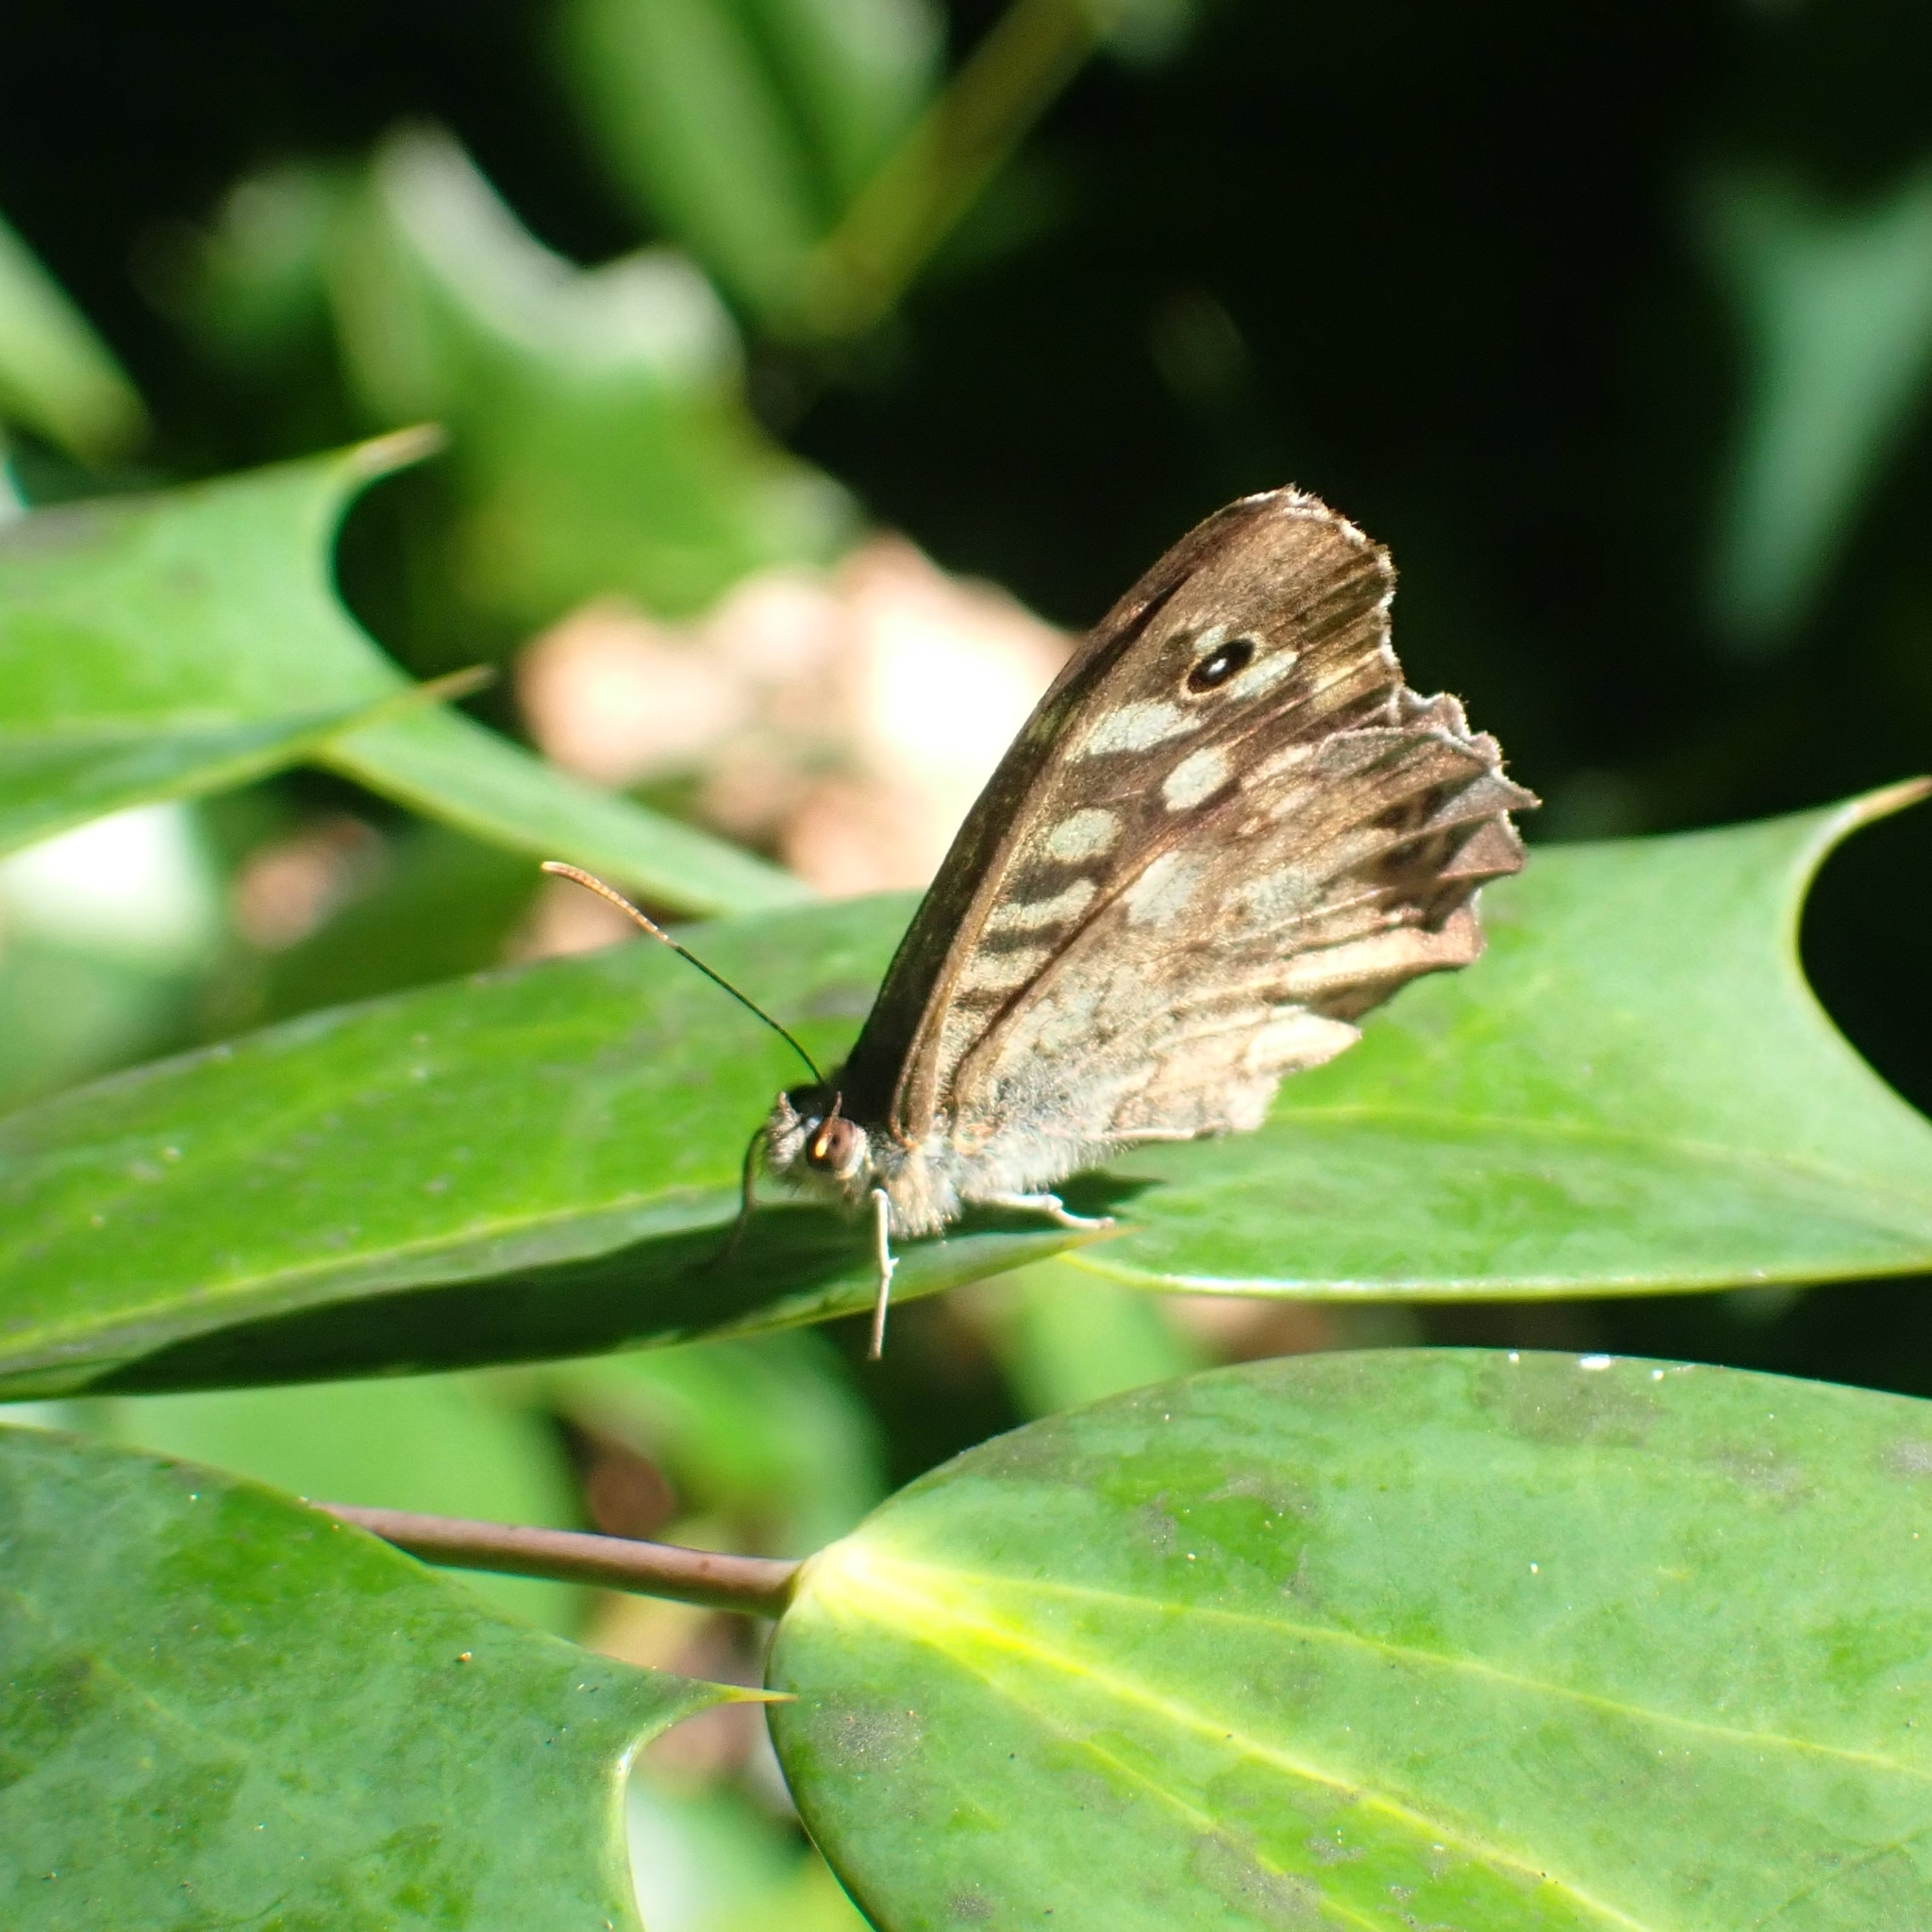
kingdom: Animalia
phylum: Arthropoda
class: Insecta
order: Lepidoptera
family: Nymphalidae
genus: Pararge
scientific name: Pararge aegeria
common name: Speckled wood
